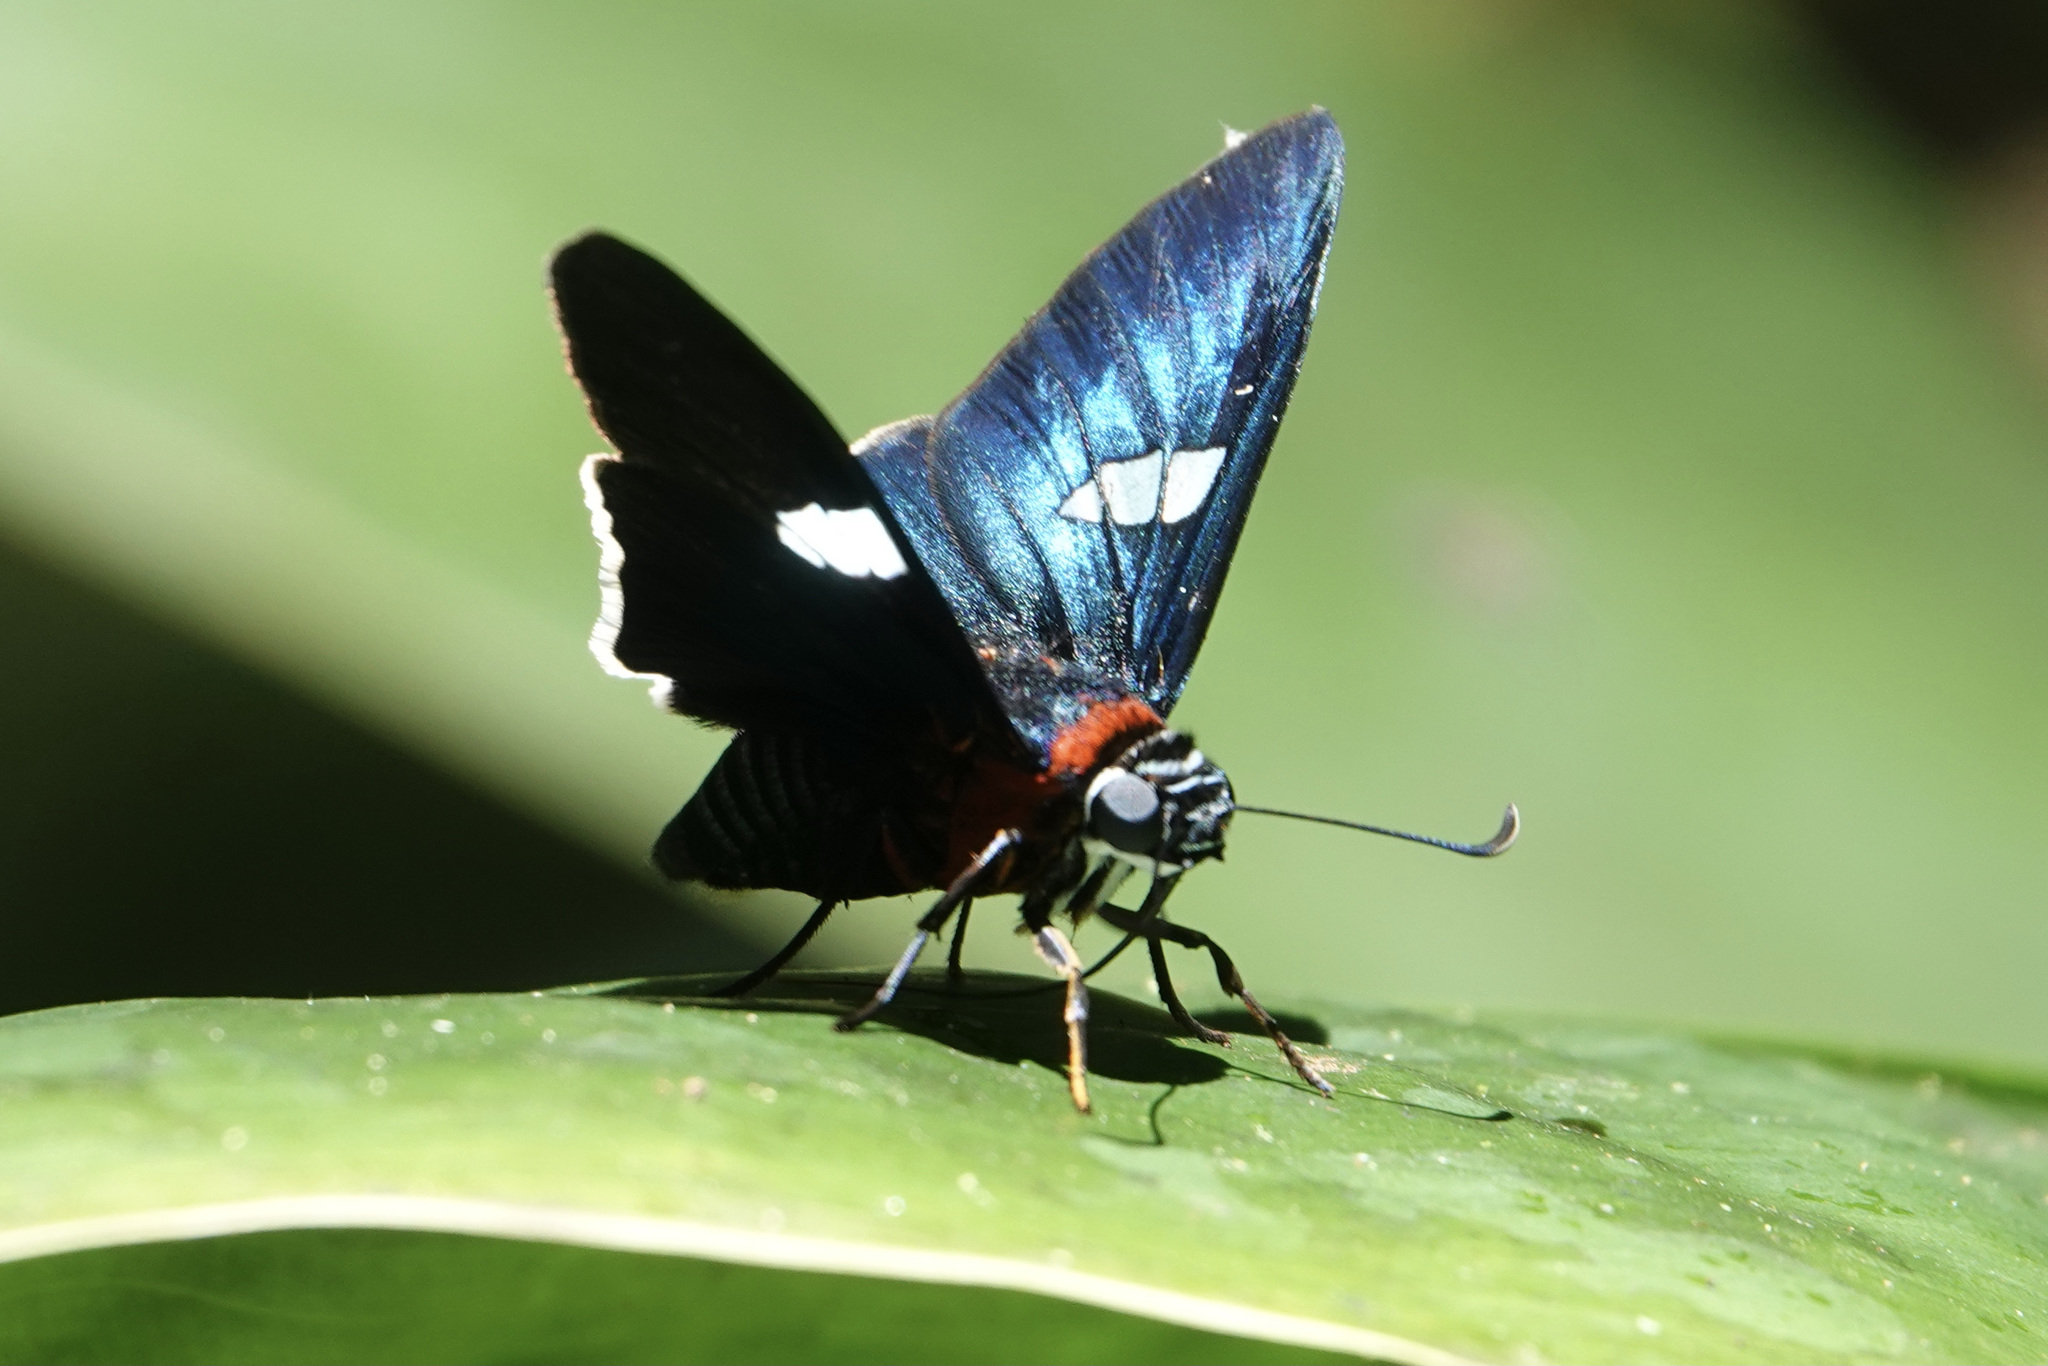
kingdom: Animalia
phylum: Arthropoda
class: Insecta
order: Lepidoptera
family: Hesperiidae
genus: Pyrrhopyge
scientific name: Pyrrhopyge rubricollis
